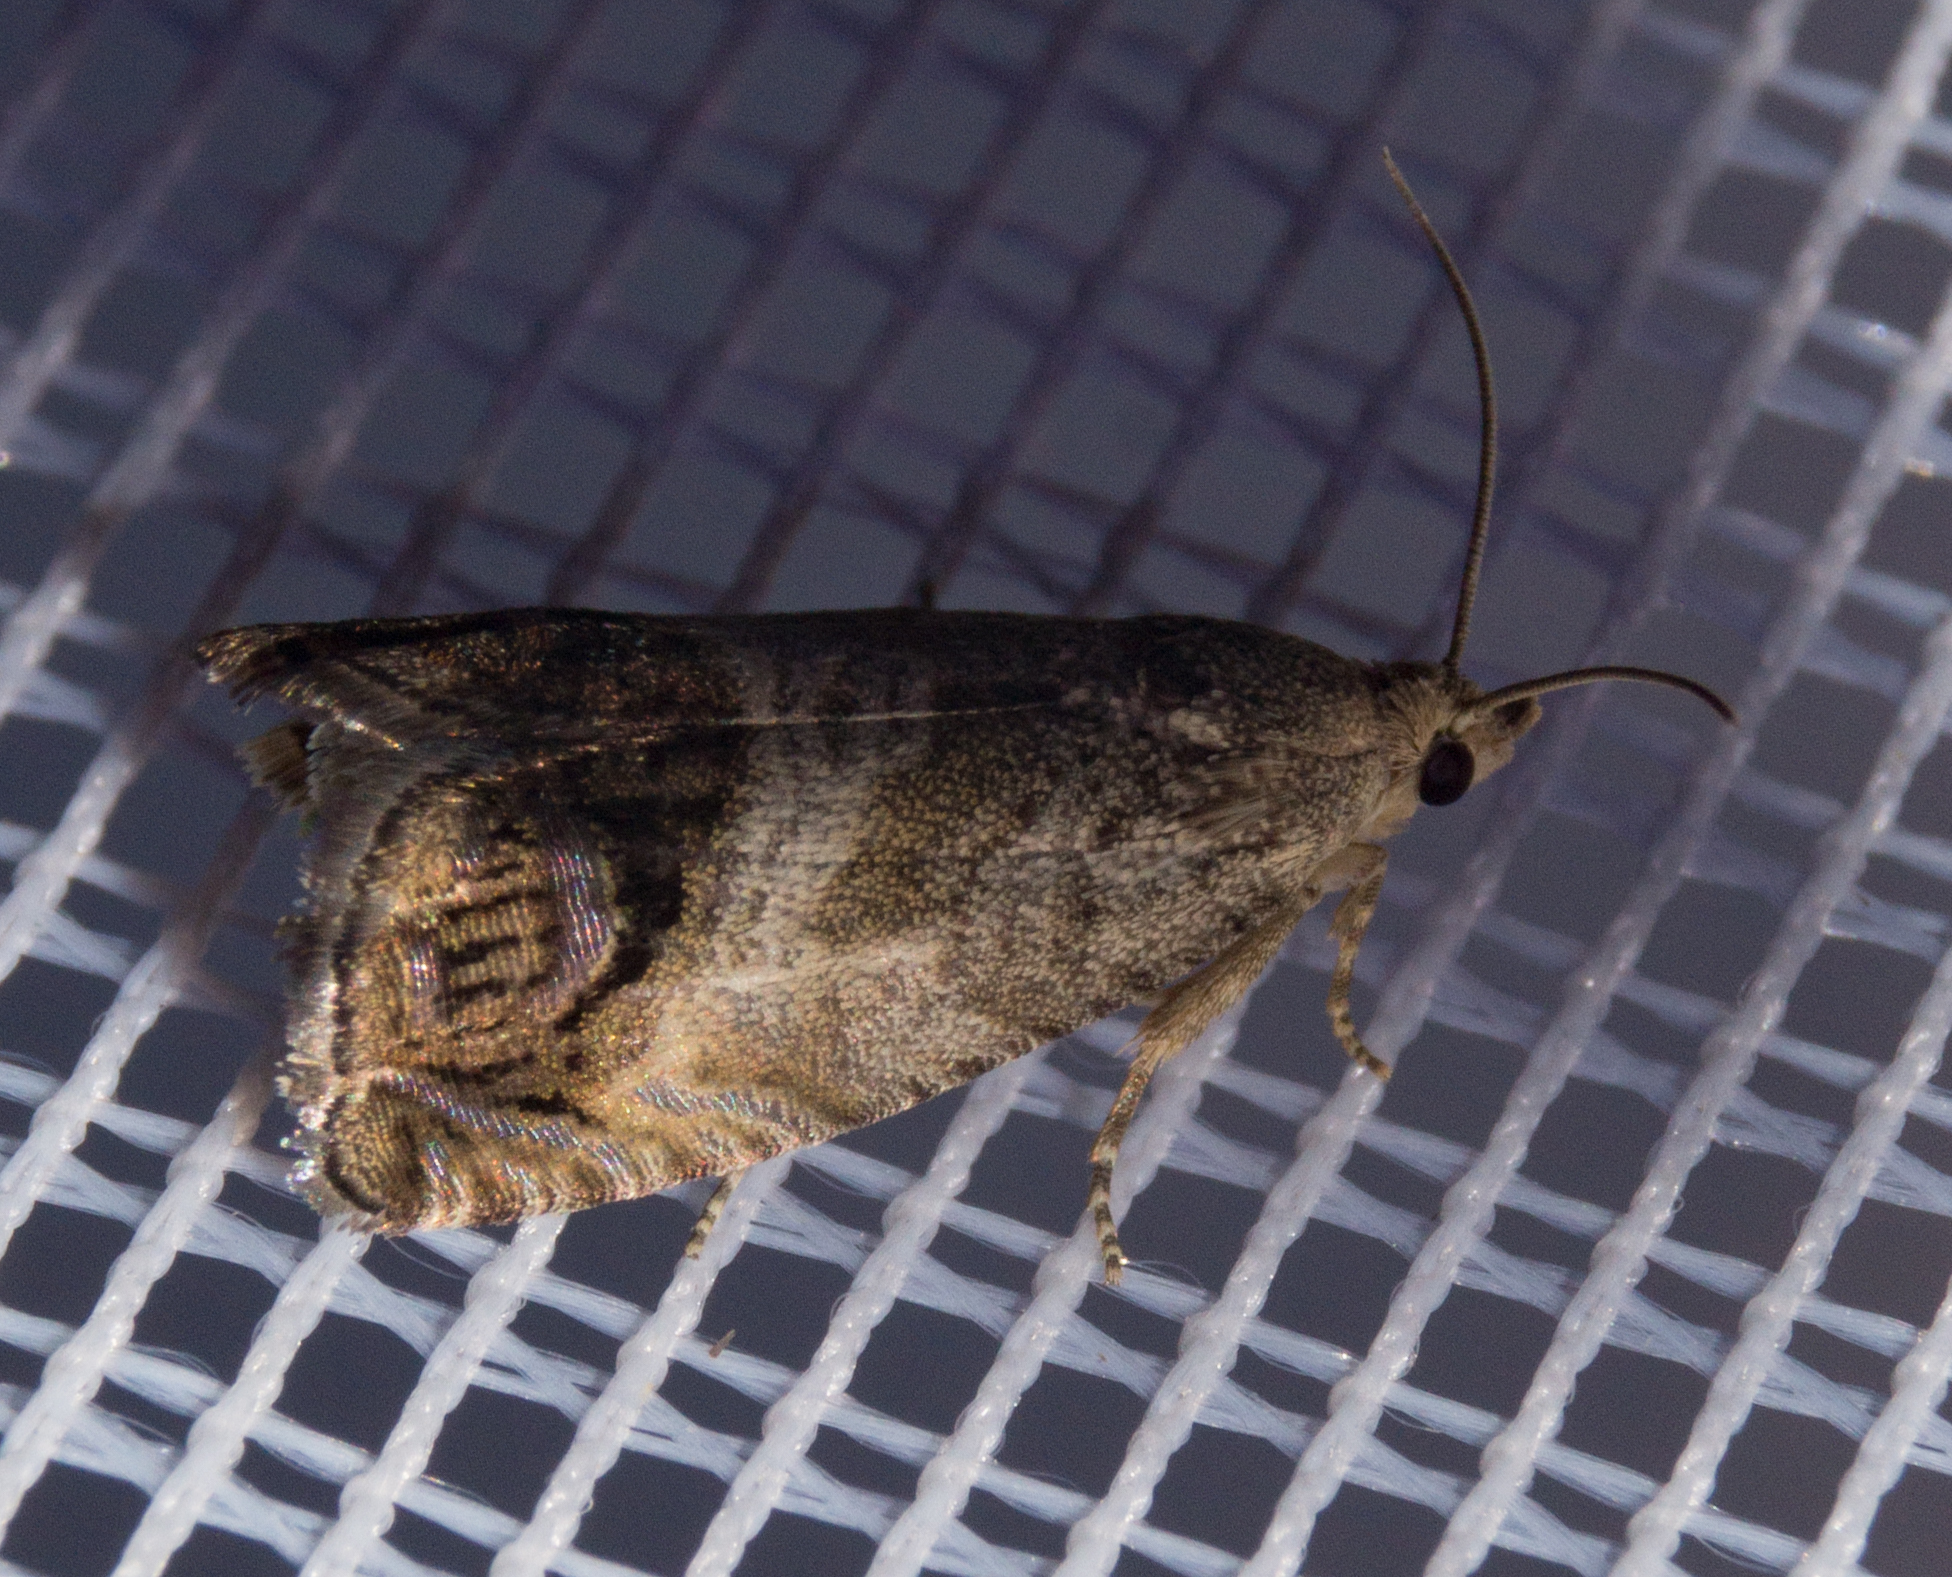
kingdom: Animalia
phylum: Arthropoda
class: Insecta
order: Lepidoptera
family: Tortricidae
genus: Cydia
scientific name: Cydia pomonella
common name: Codling moth
